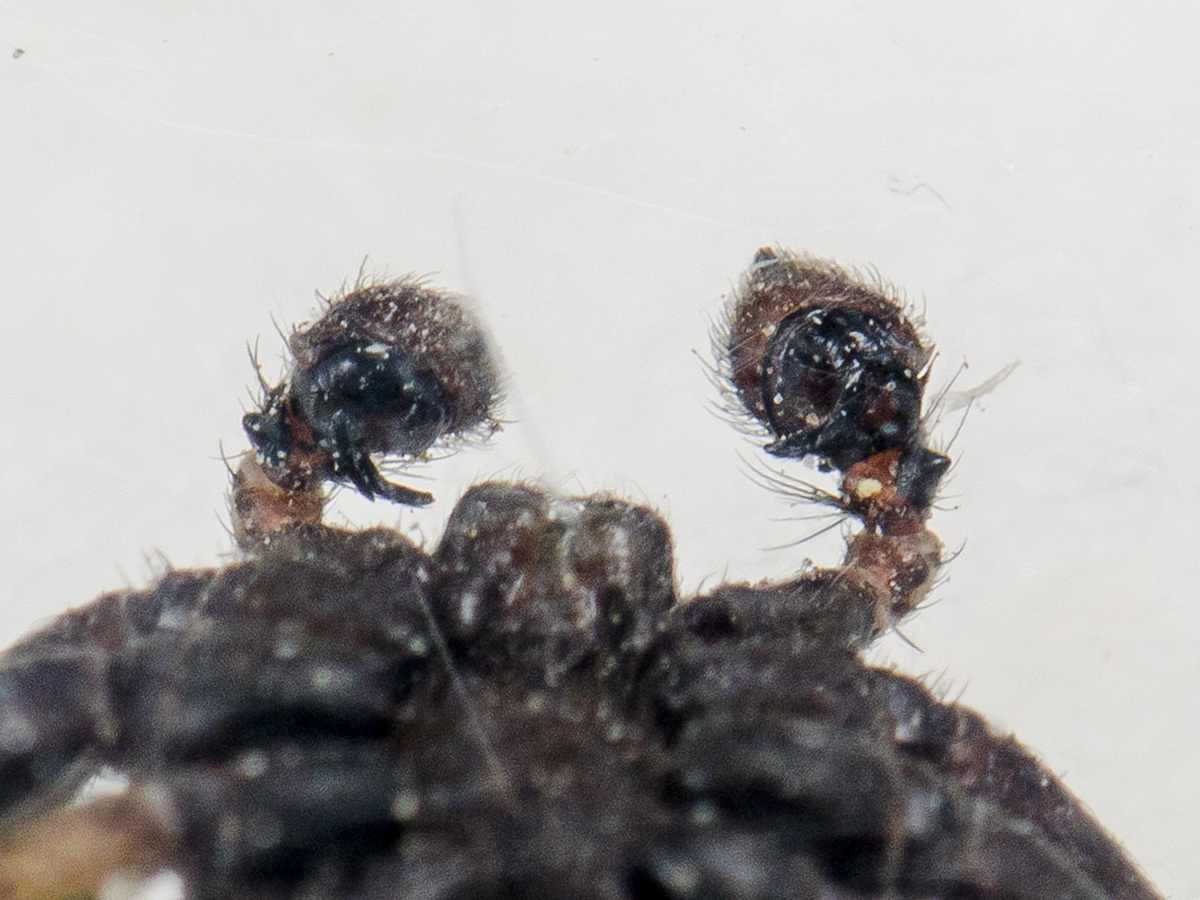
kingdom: Animalia
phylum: Arthropoda
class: Arachnida
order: Araneae
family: Thomisidae
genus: Xysticus
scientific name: Xysticus ephippiatus
